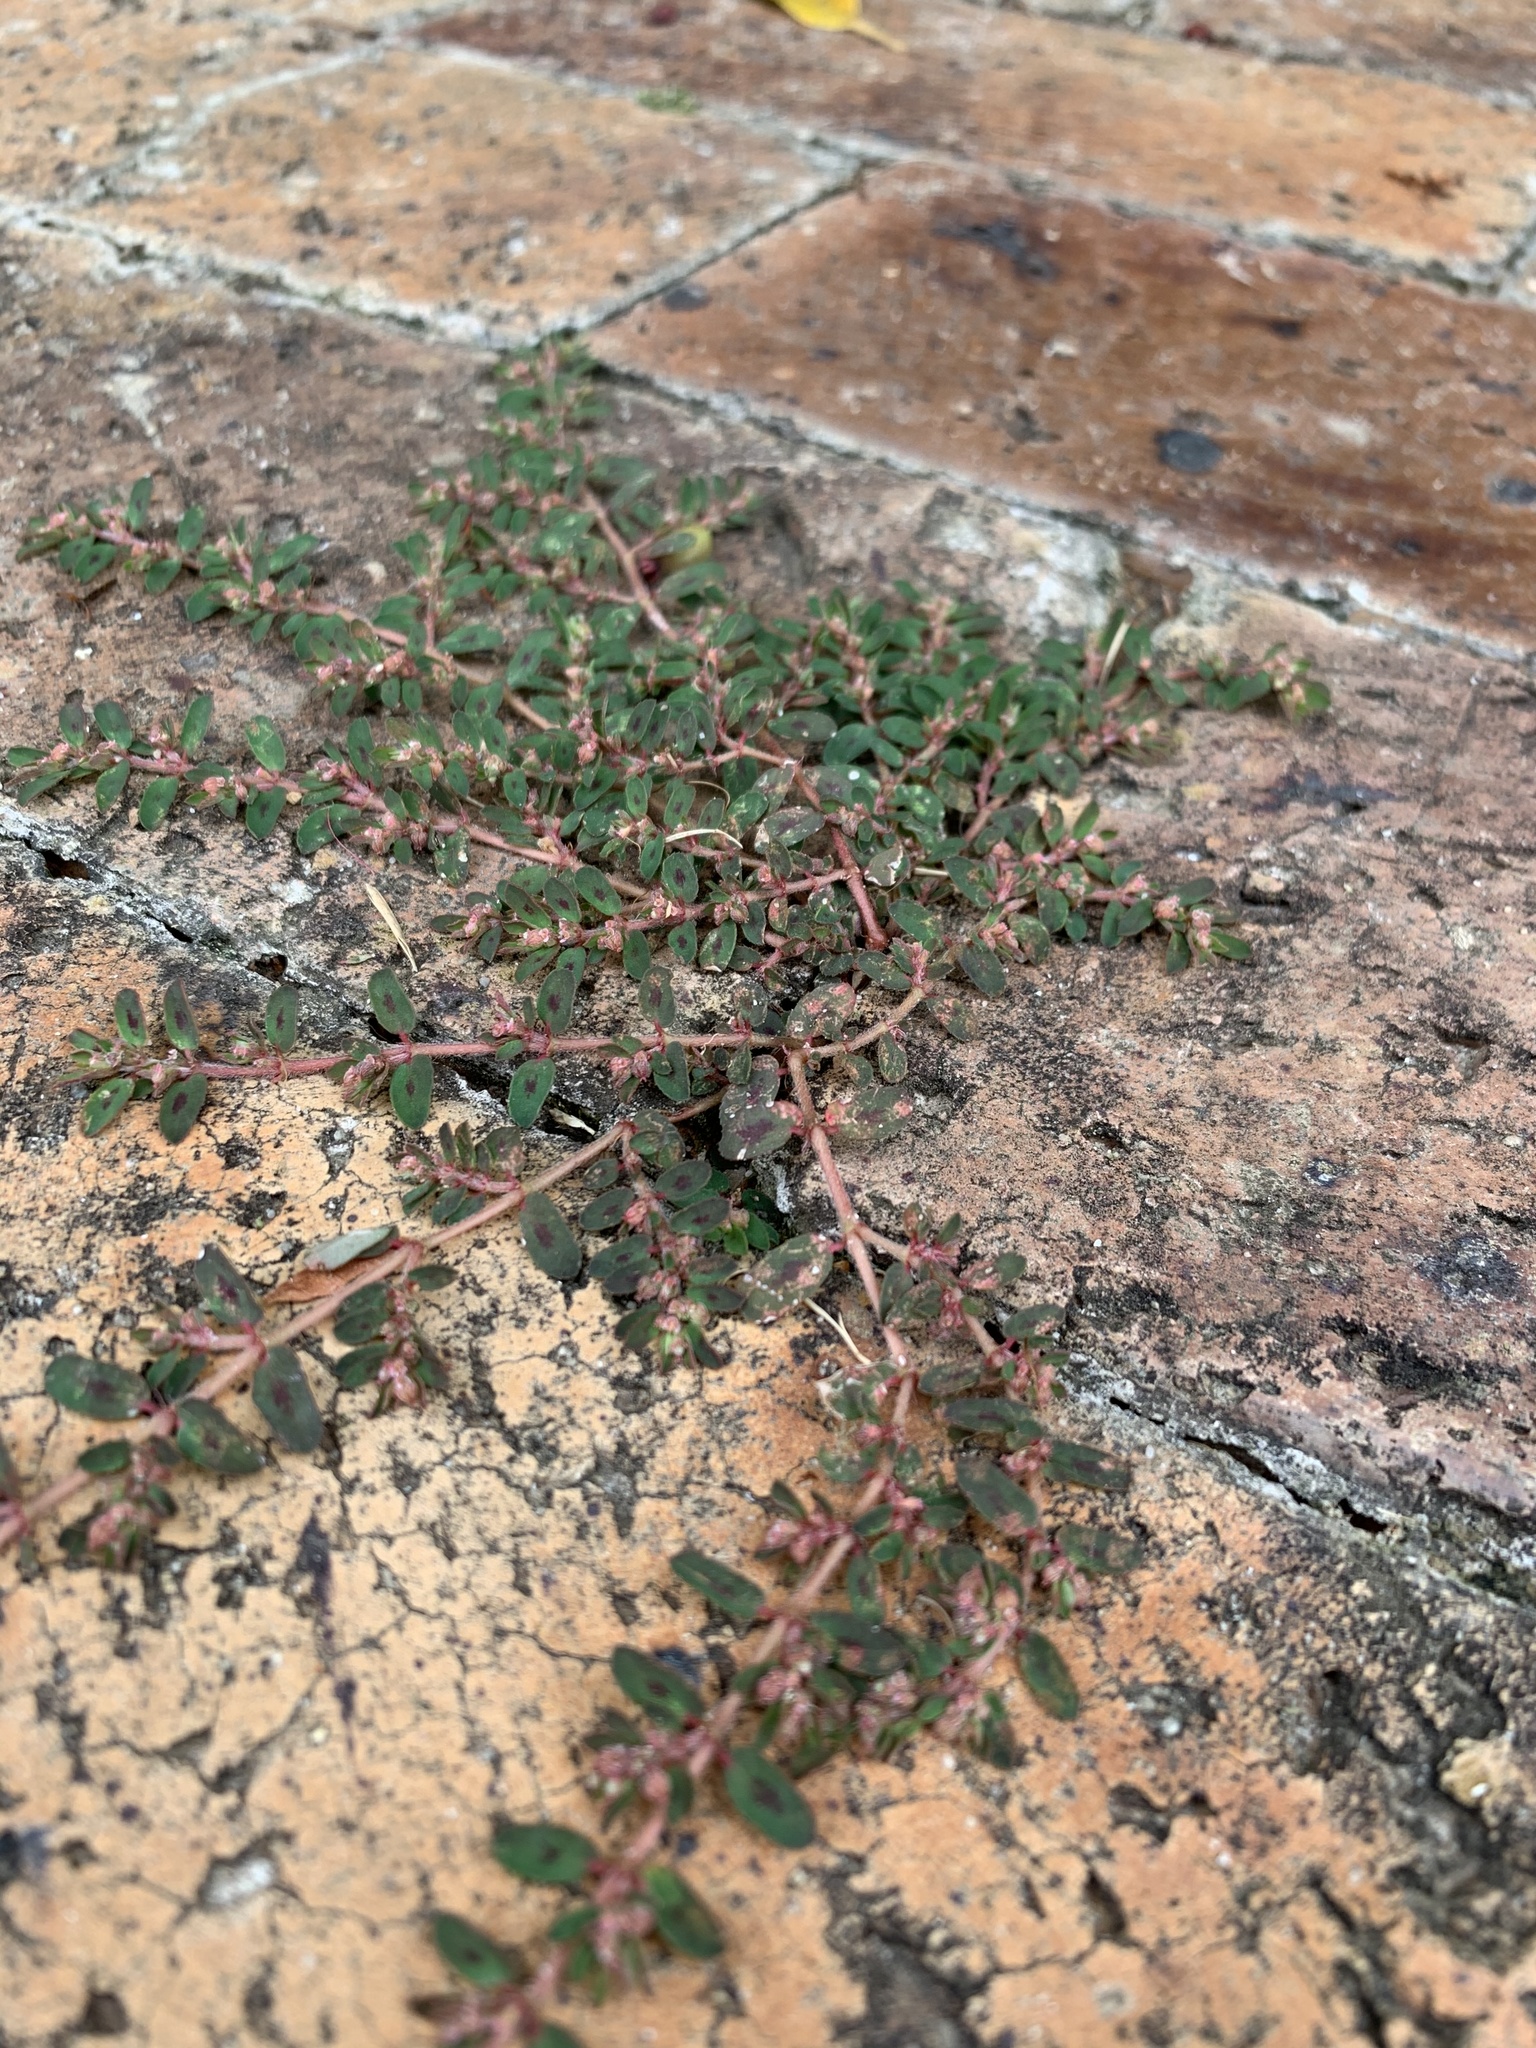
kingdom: Plantae
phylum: Tracheophyta
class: Magnoliopsida
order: Malpighiales
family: Euphorbiaceae
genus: Euphorbia
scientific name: Euphorbia maculata
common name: Spotted spurge
